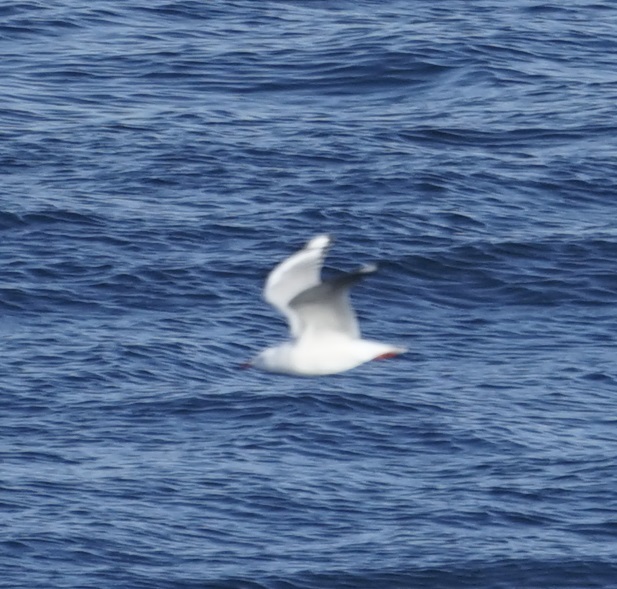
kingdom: Animalia
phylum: Chordata
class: Aves
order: Charadriiformes
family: Laridae
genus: Chroicocephalus
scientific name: Chroicocephalus novaehollandiae
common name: Silver gull
